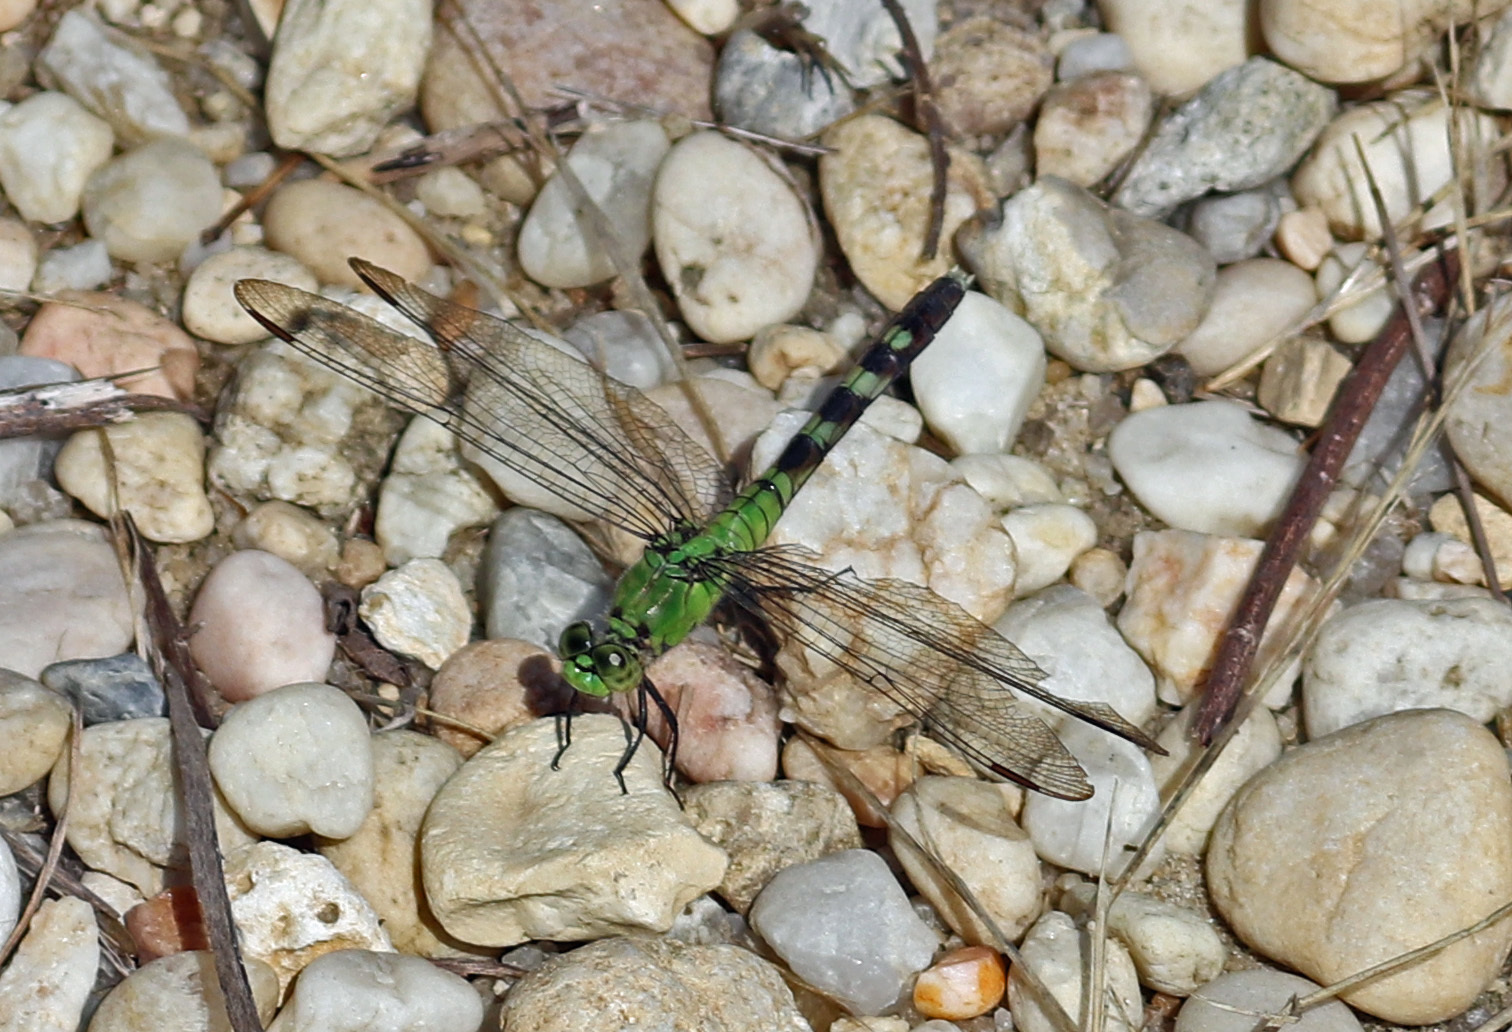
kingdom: Animalia
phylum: Arthropoda
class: Insecta
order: Odonata
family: Libellulidae
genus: Erythemis
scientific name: Erythemis simplicicollis
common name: Eastern pondhawk
